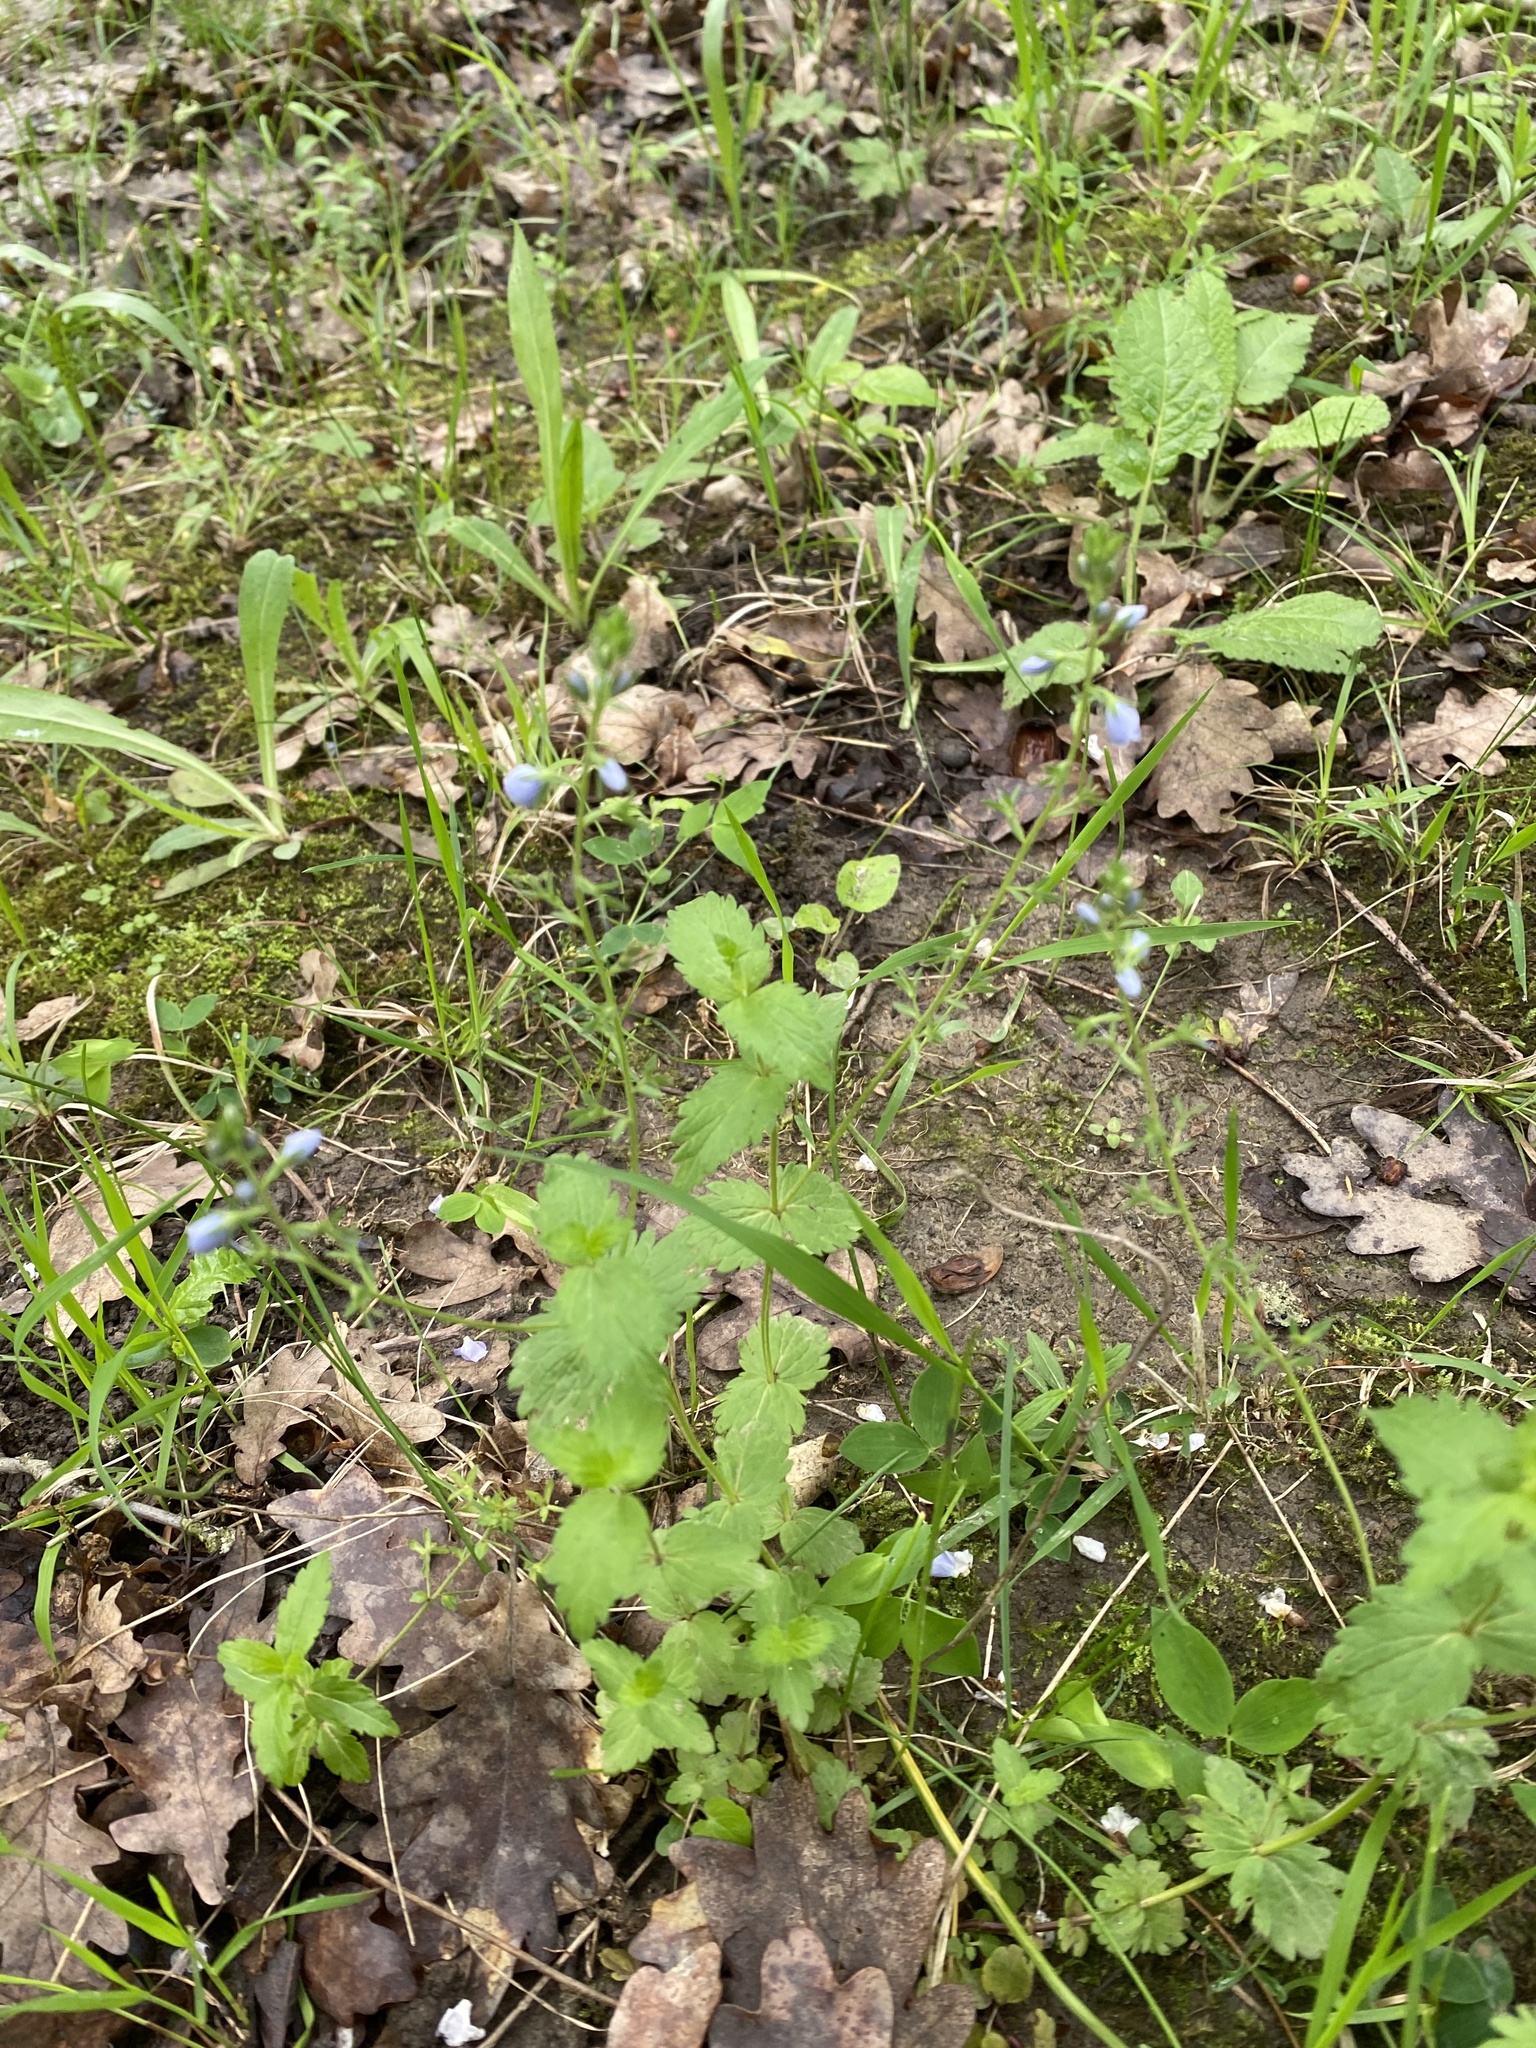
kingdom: Plantae
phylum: Tracheophyta
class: Magnoliopsida
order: Lamiales
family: Plantaginaceae
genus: Veronica
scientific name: Veronica chamaedrys
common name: Germander speedwell
